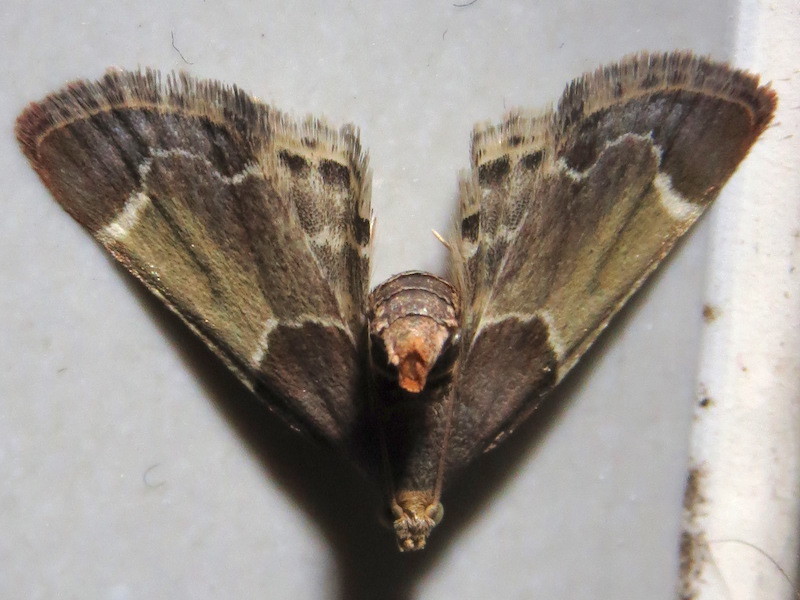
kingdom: Animalia
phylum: Arthropoda
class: Insecta
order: Lepidoptera
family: Pyralidae
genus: Pyralis
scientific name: Pyralis farinalis
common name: Meal moth
